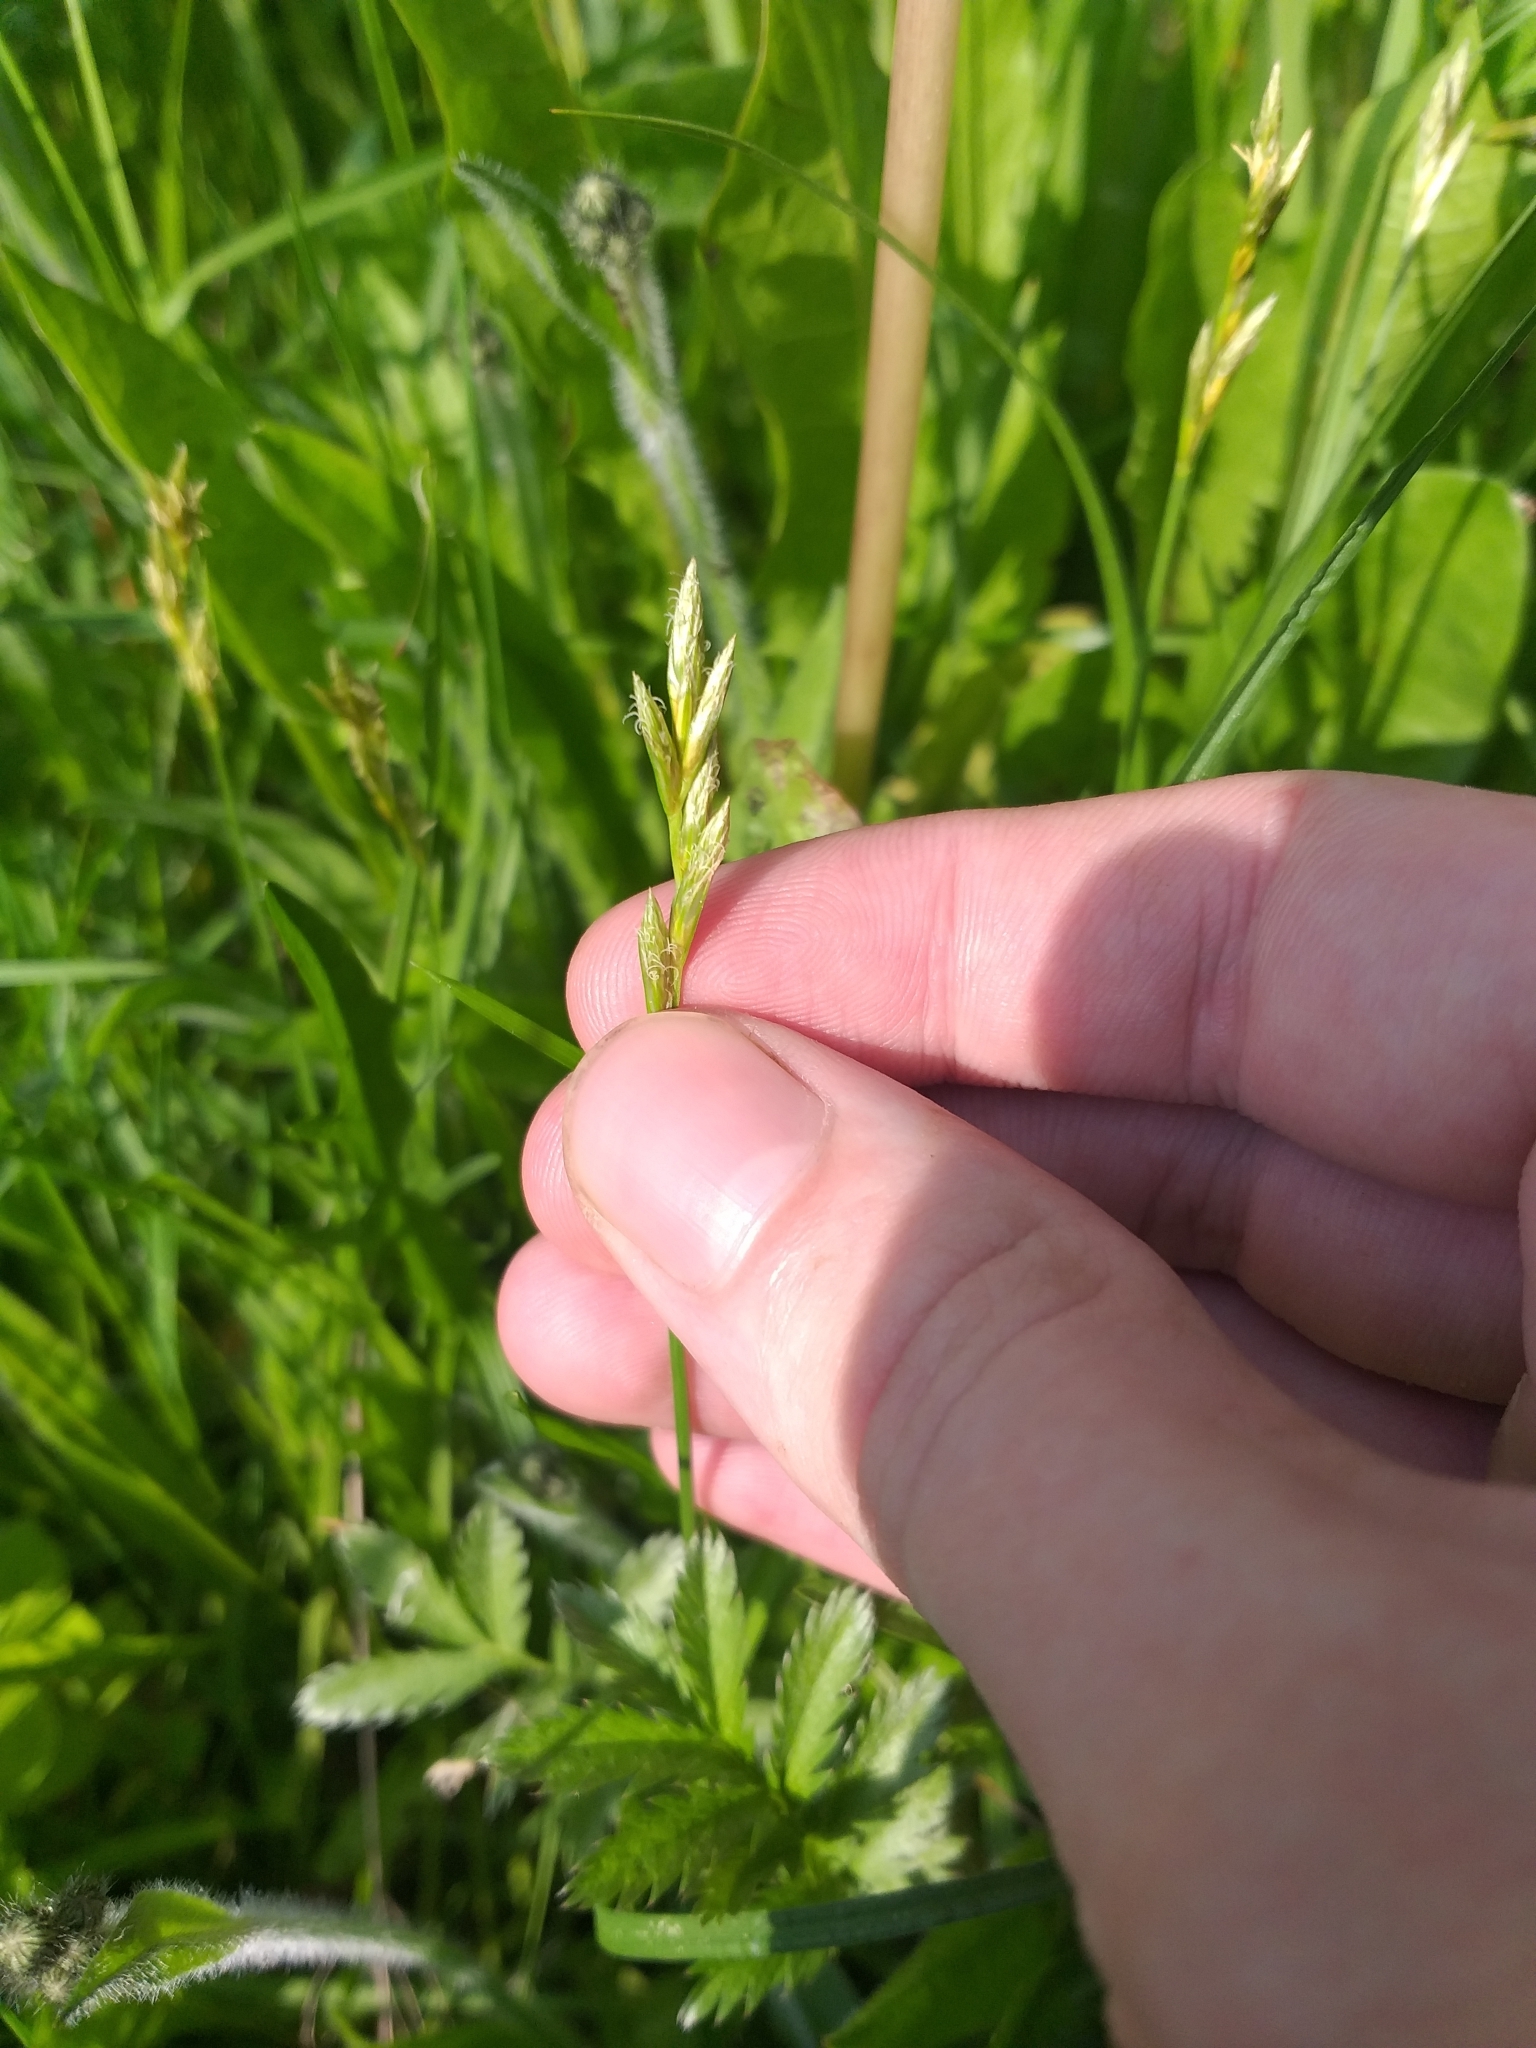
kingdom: Plantae
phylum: Tracheophyta
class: Liliopsida
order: Poales
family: Cyperaceae
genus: Carex
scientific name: Carex leporina
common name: Oval sedge
